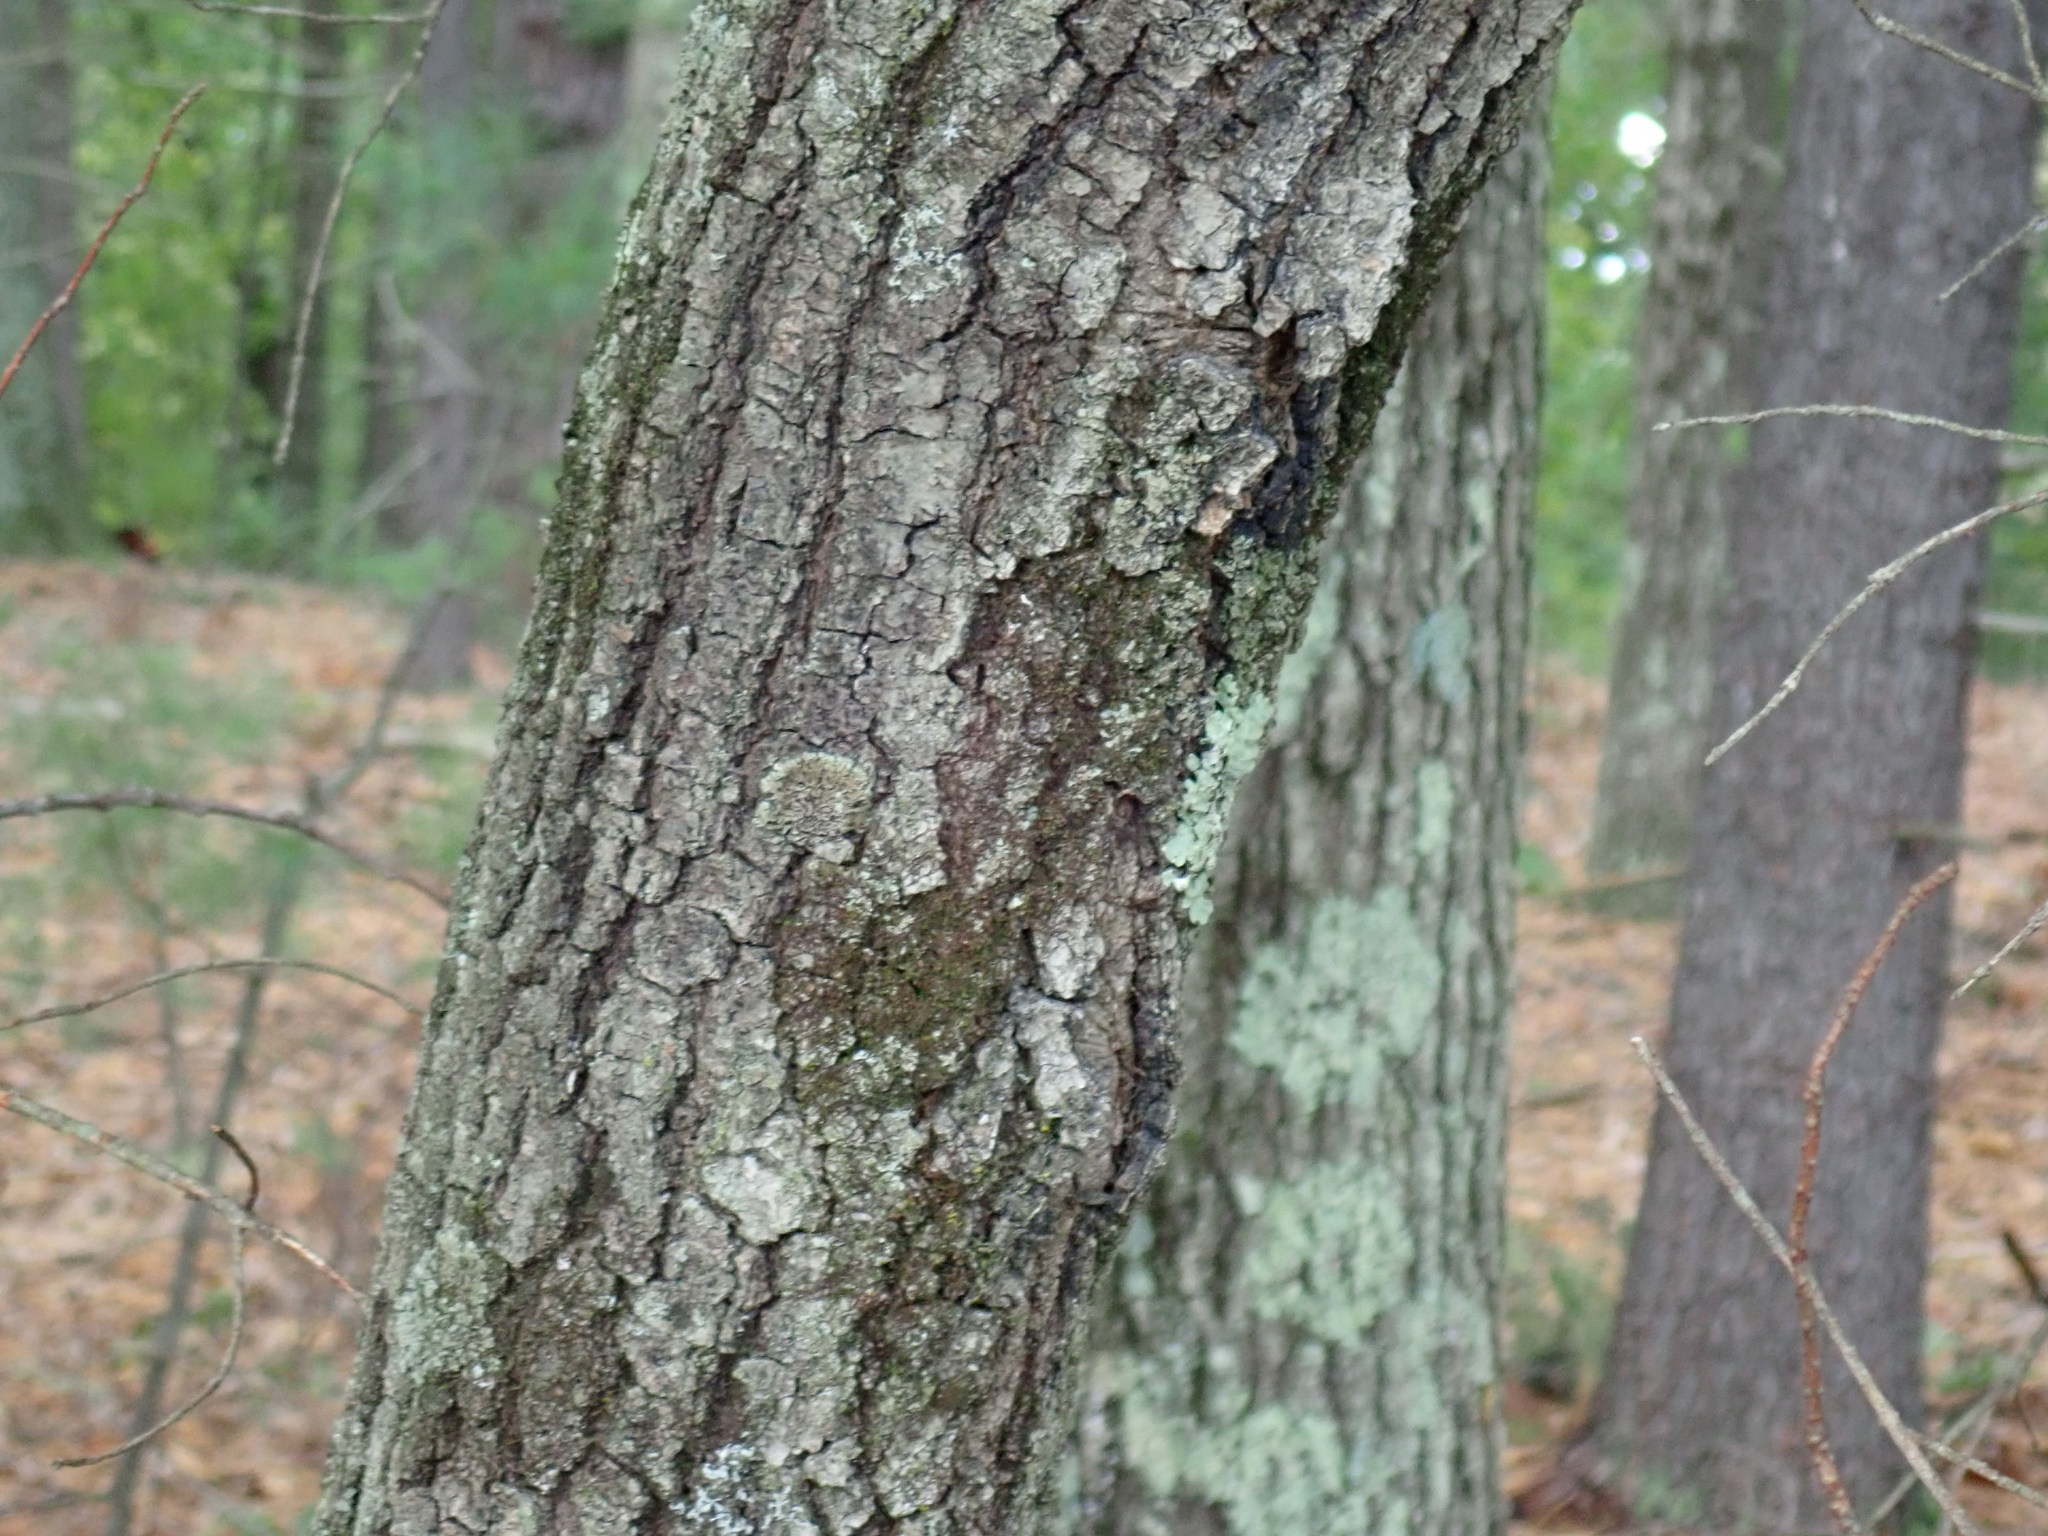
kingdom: Plantae
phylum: Tracheophyta
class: Magnoliopsida
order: Fagales
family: Fagaceae
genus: Quercus
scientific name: Quercus velutina
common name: Black oak
